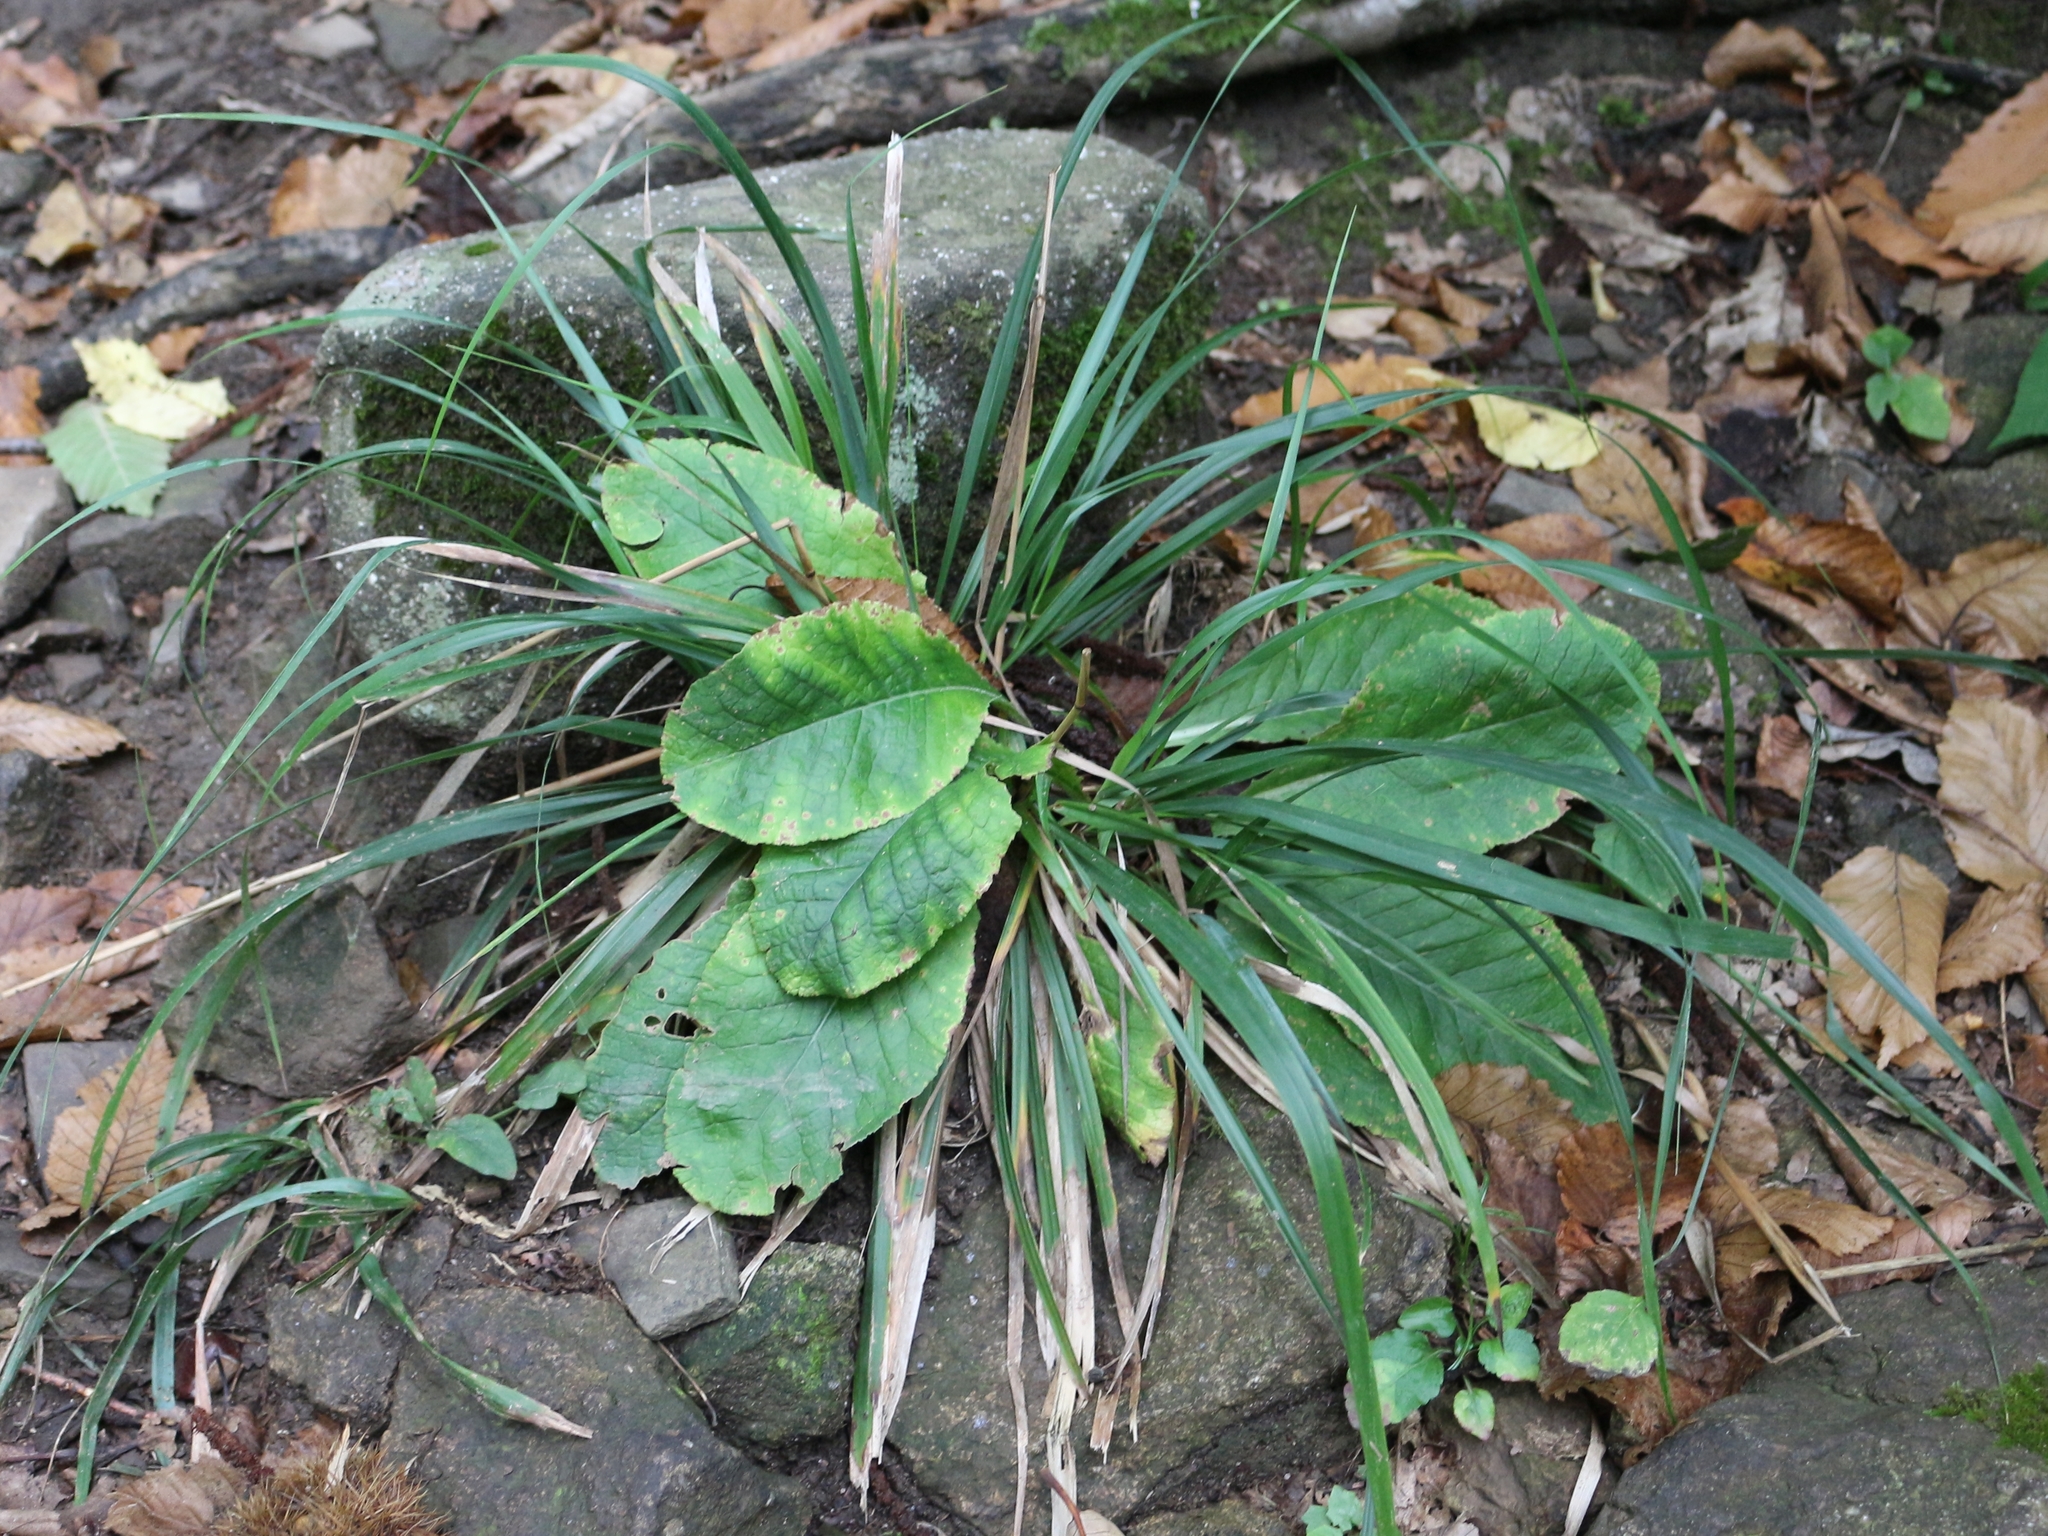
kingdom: Plantae
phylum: Tracheophyta
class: Magnoliopsida
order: Ericales
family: Primulaceae
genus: Primula
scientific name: Primula vulgaris
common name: Primrose
